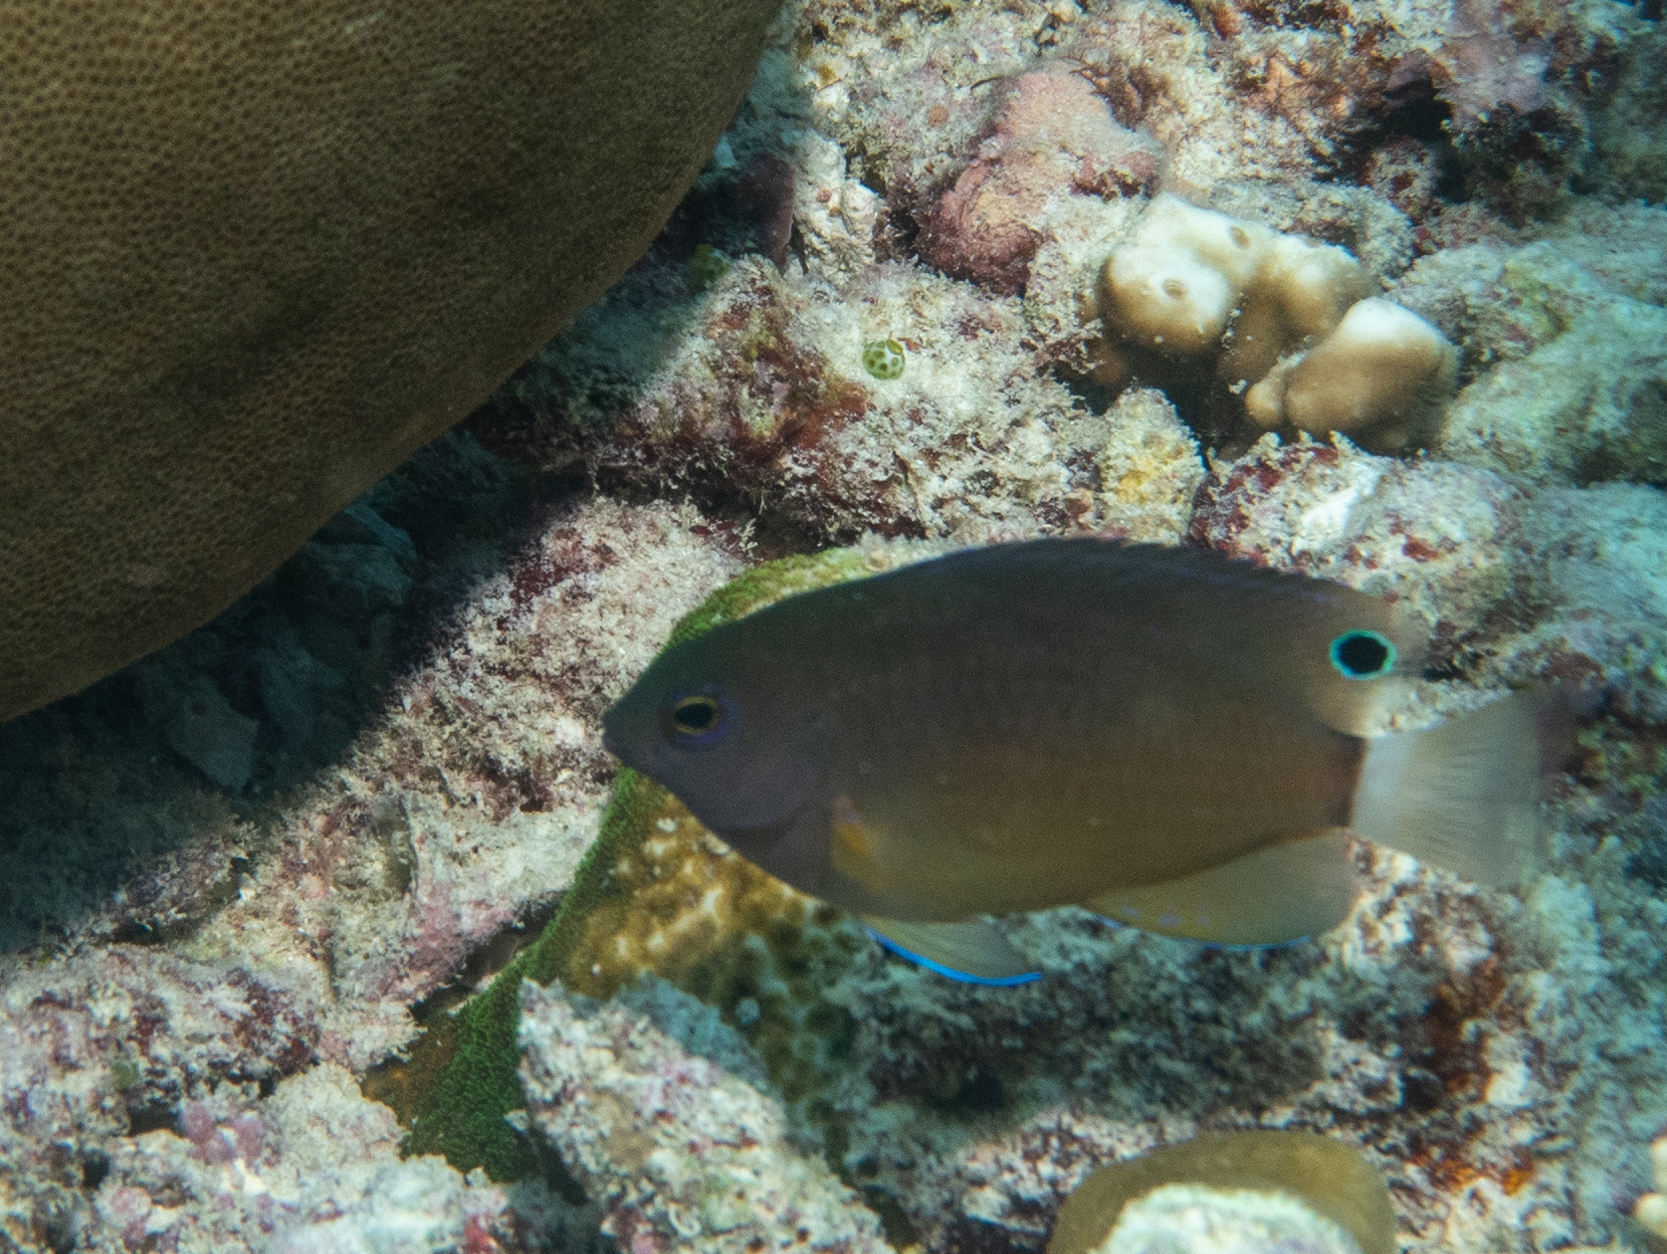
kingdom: Animalia
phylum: Chordata
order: Perciformes
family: Pomacentridae
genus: Pomacentrus
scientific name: Pomacentrus chrysurus
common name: White-tail damsel
